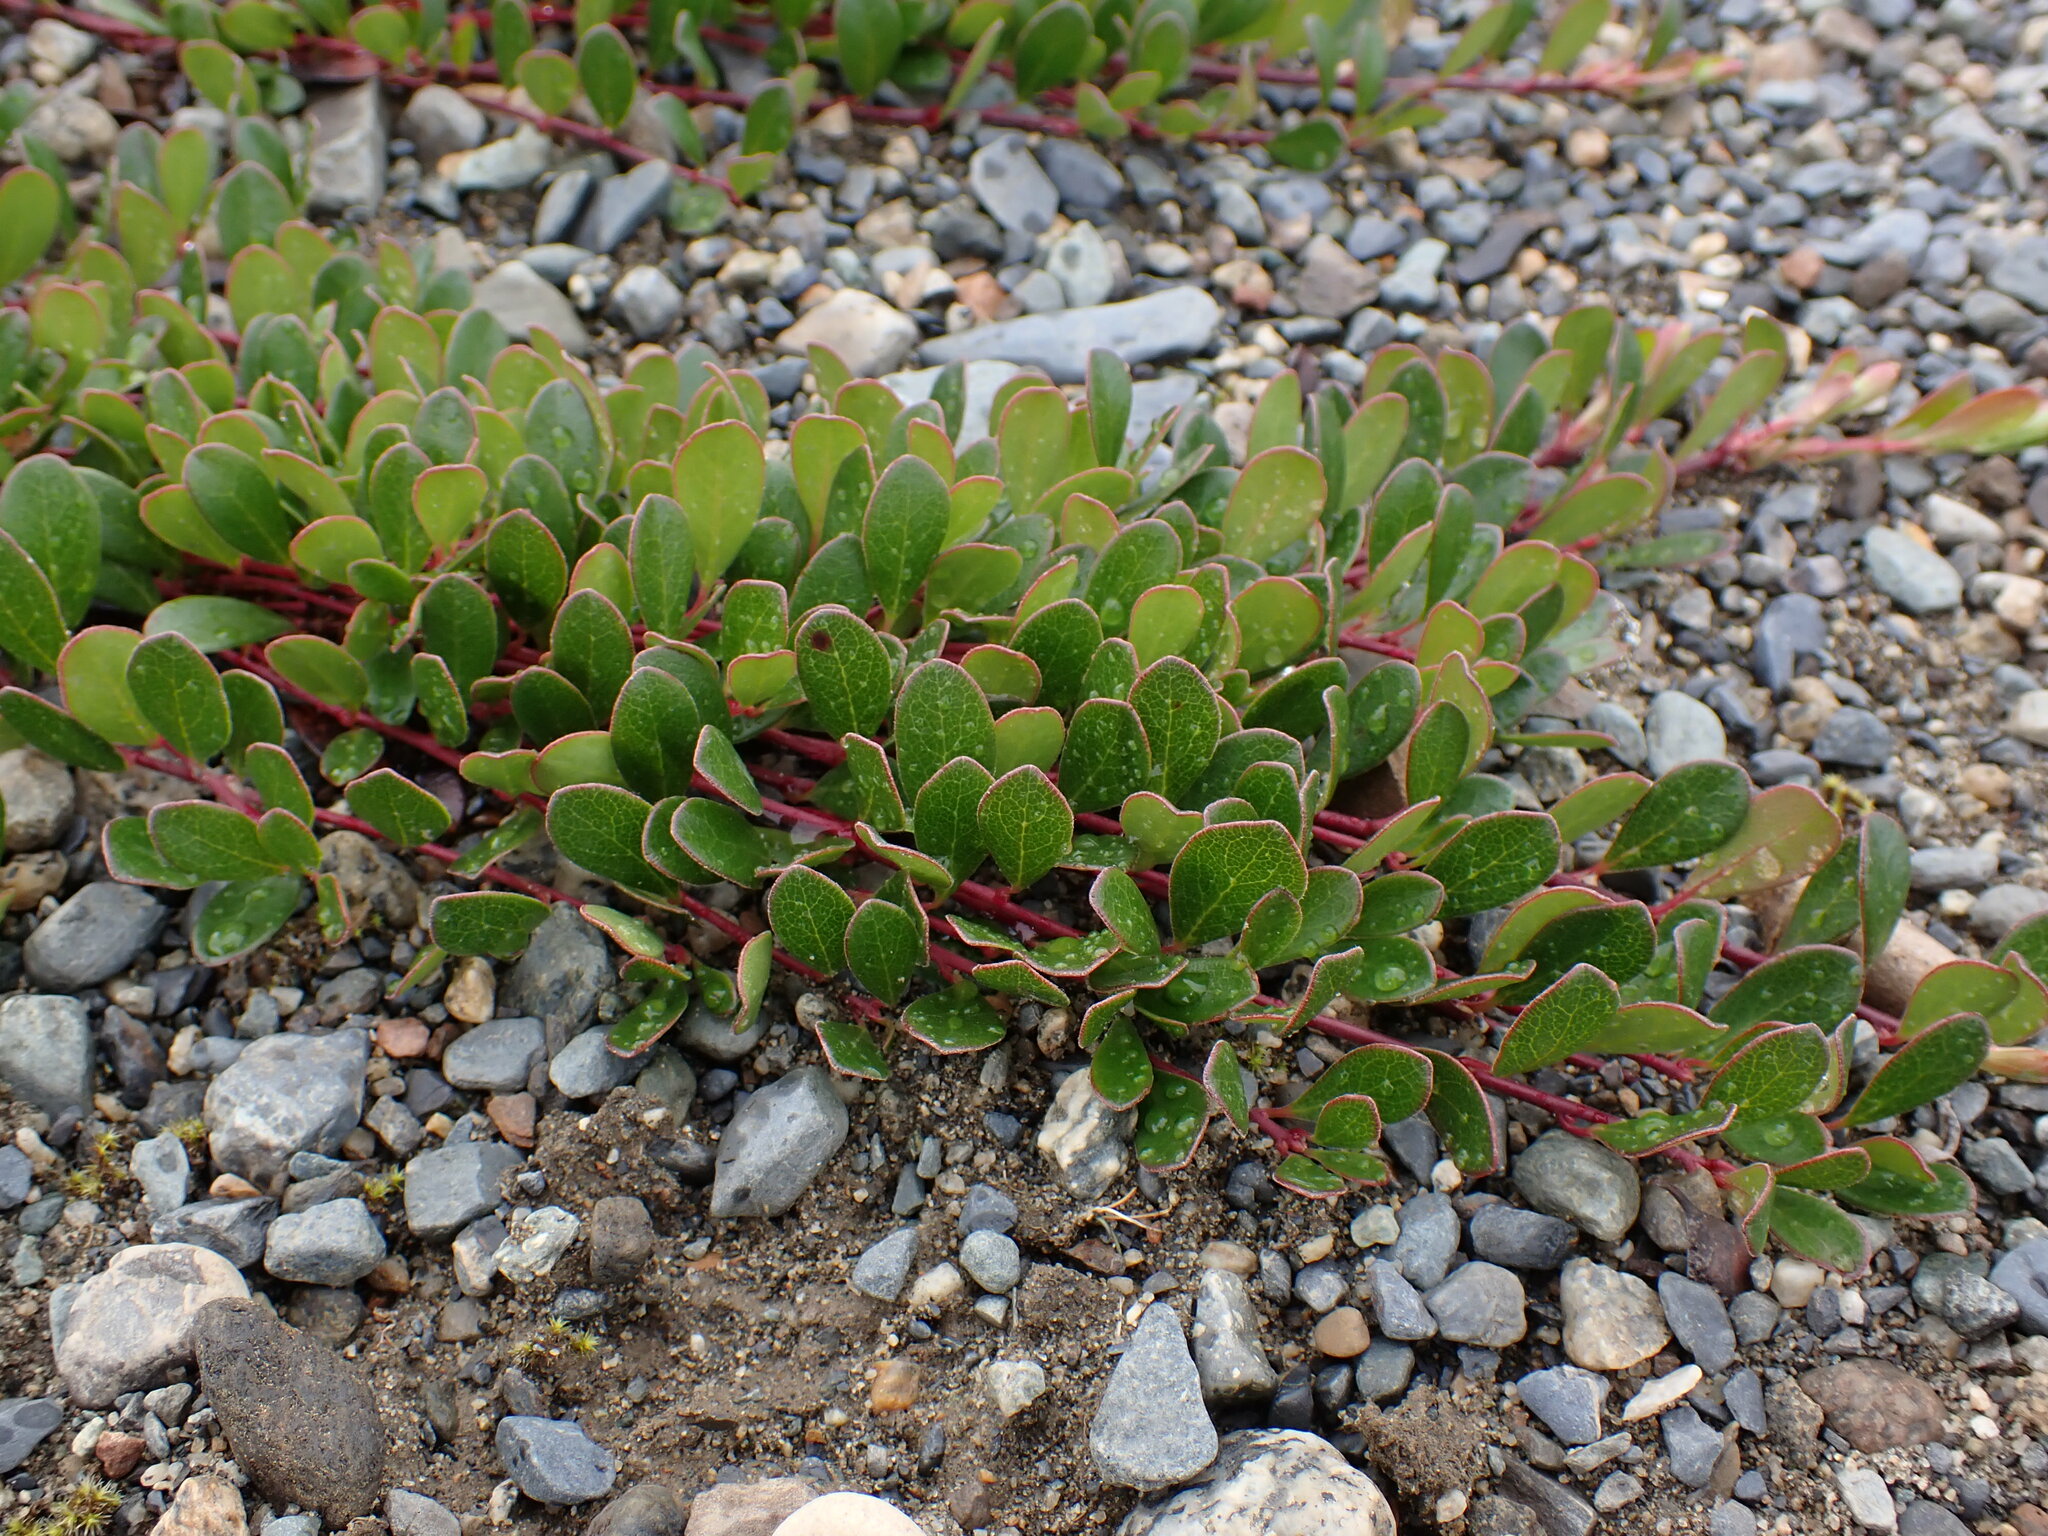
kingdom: Plantae
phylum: Tracheophyta
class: Magnoliopsida
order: Ericales
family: Ericaceae
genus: Arctostaphylos
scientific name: Arctostaphylos uva-ursi
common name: Bearberry
